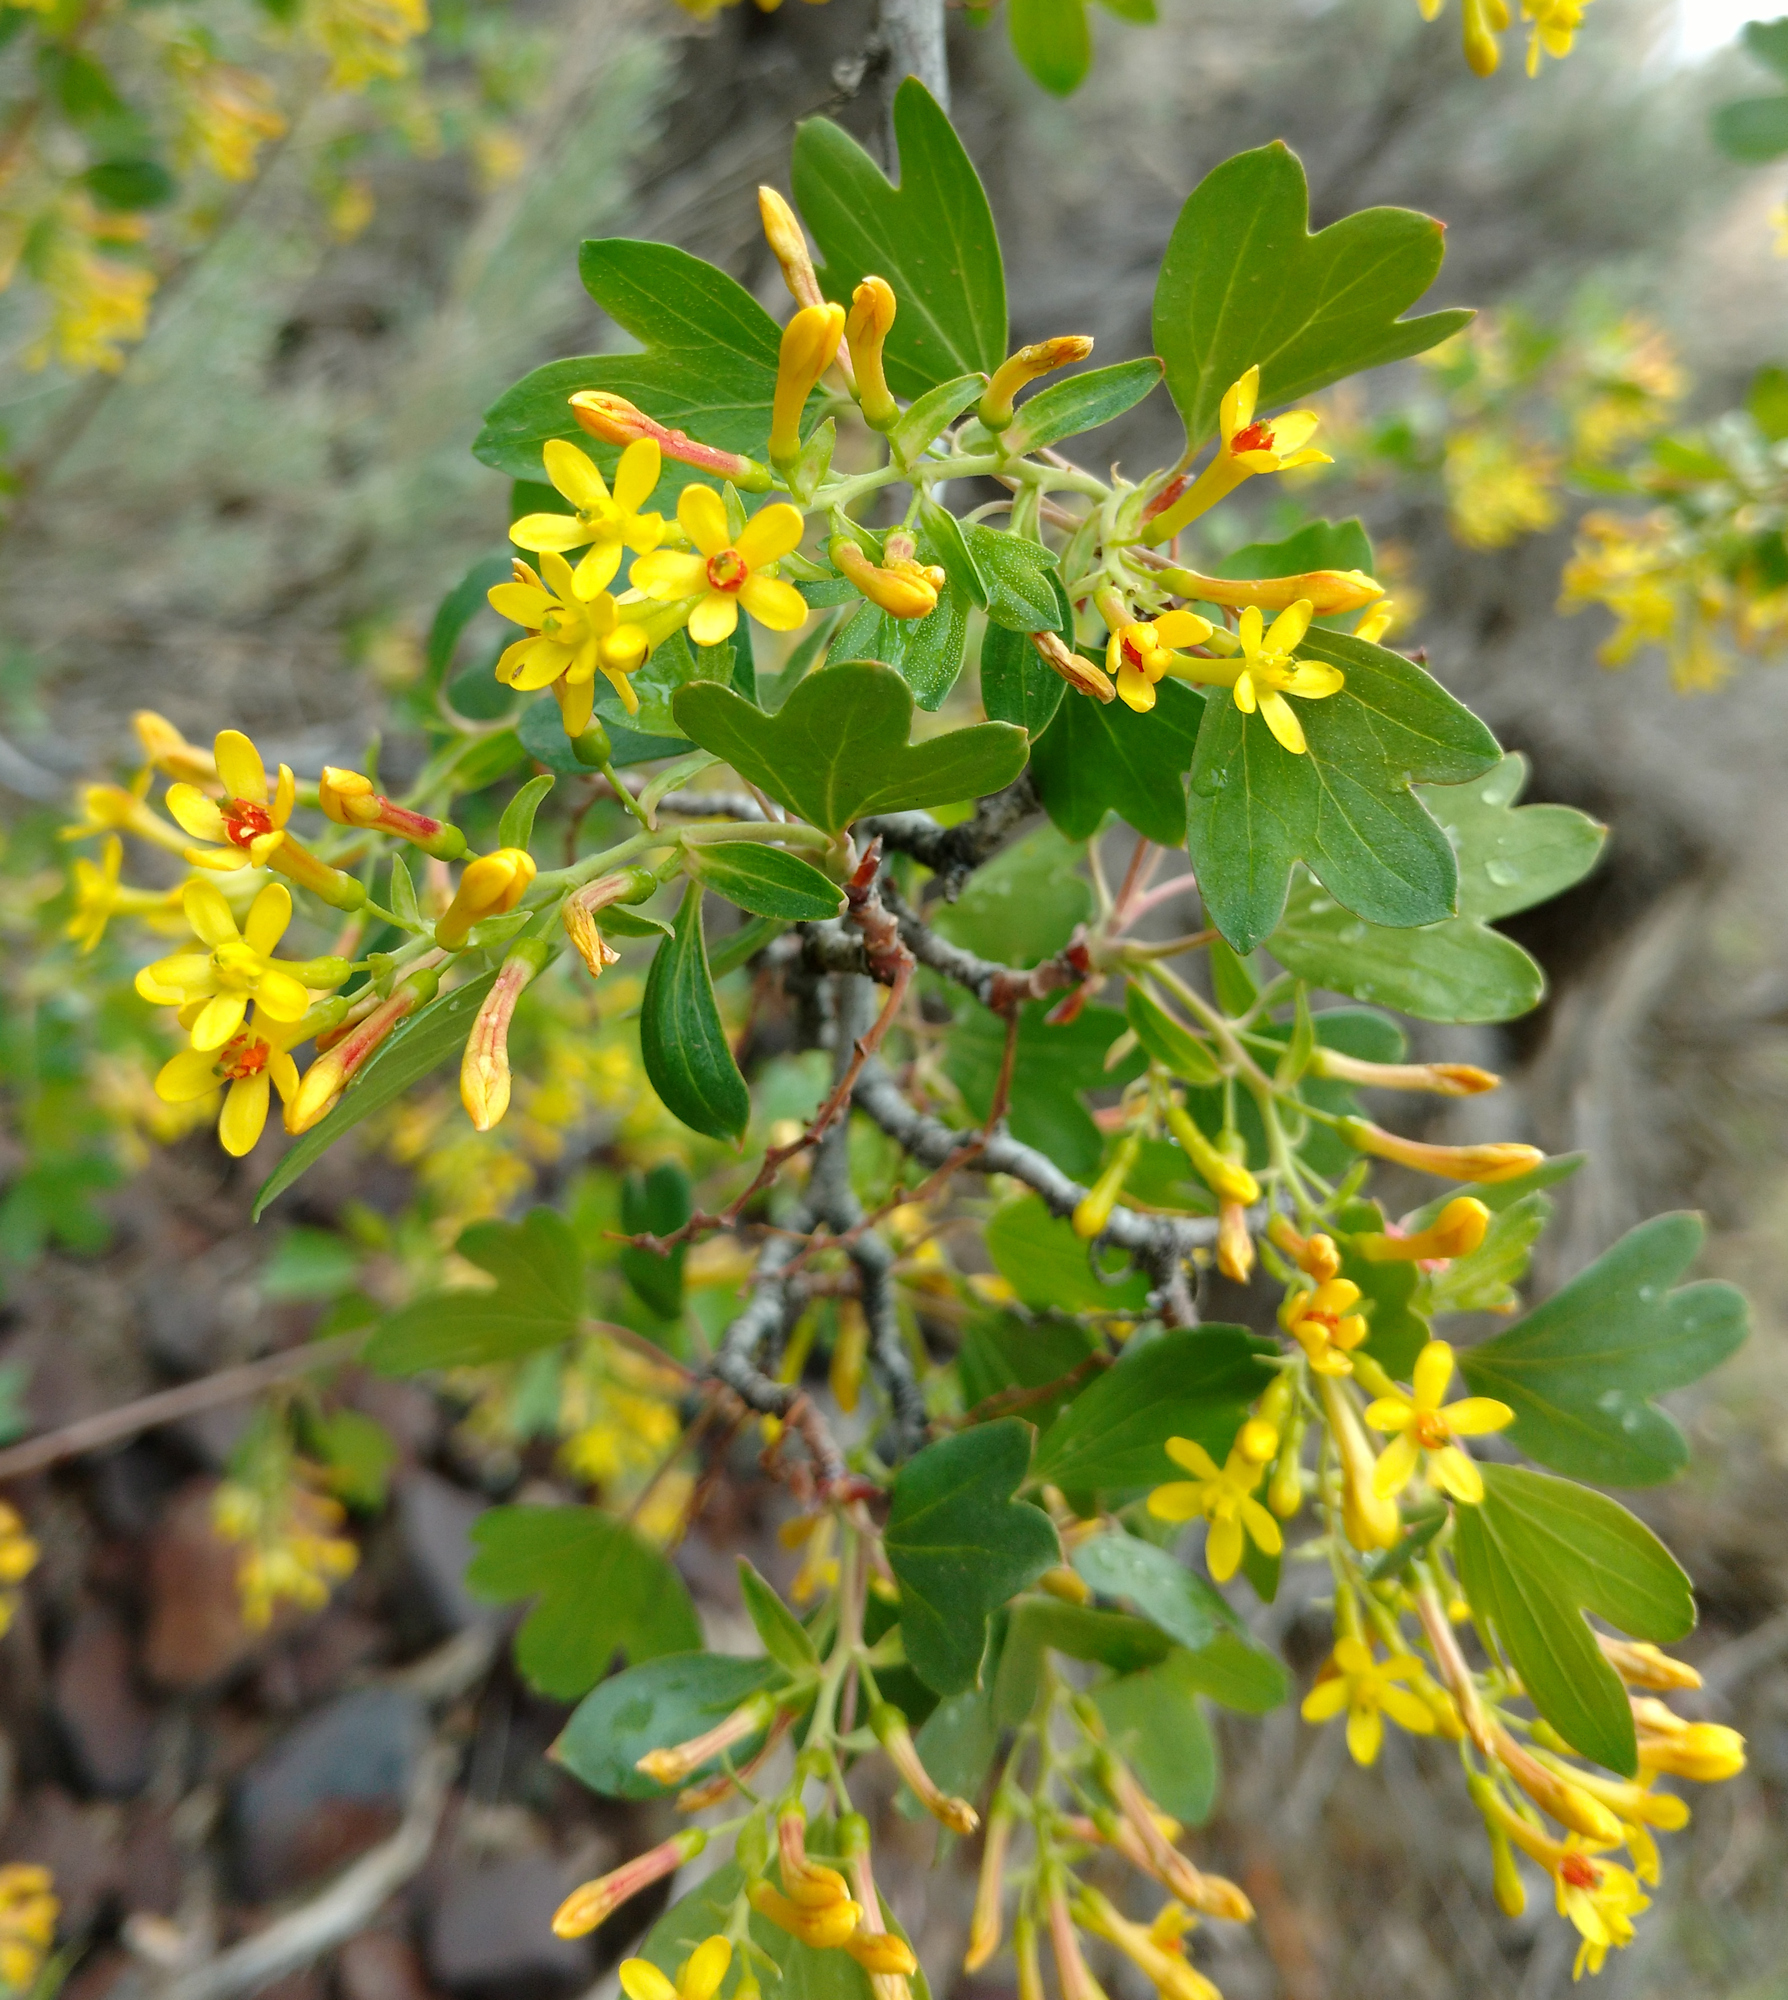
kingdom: Plantae
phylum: Tracheophyta
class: Magnoliopsida
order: Saxifragales
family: Grossulariaceae
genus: Ribes
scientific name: Ribes aureum
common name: Golden currant
